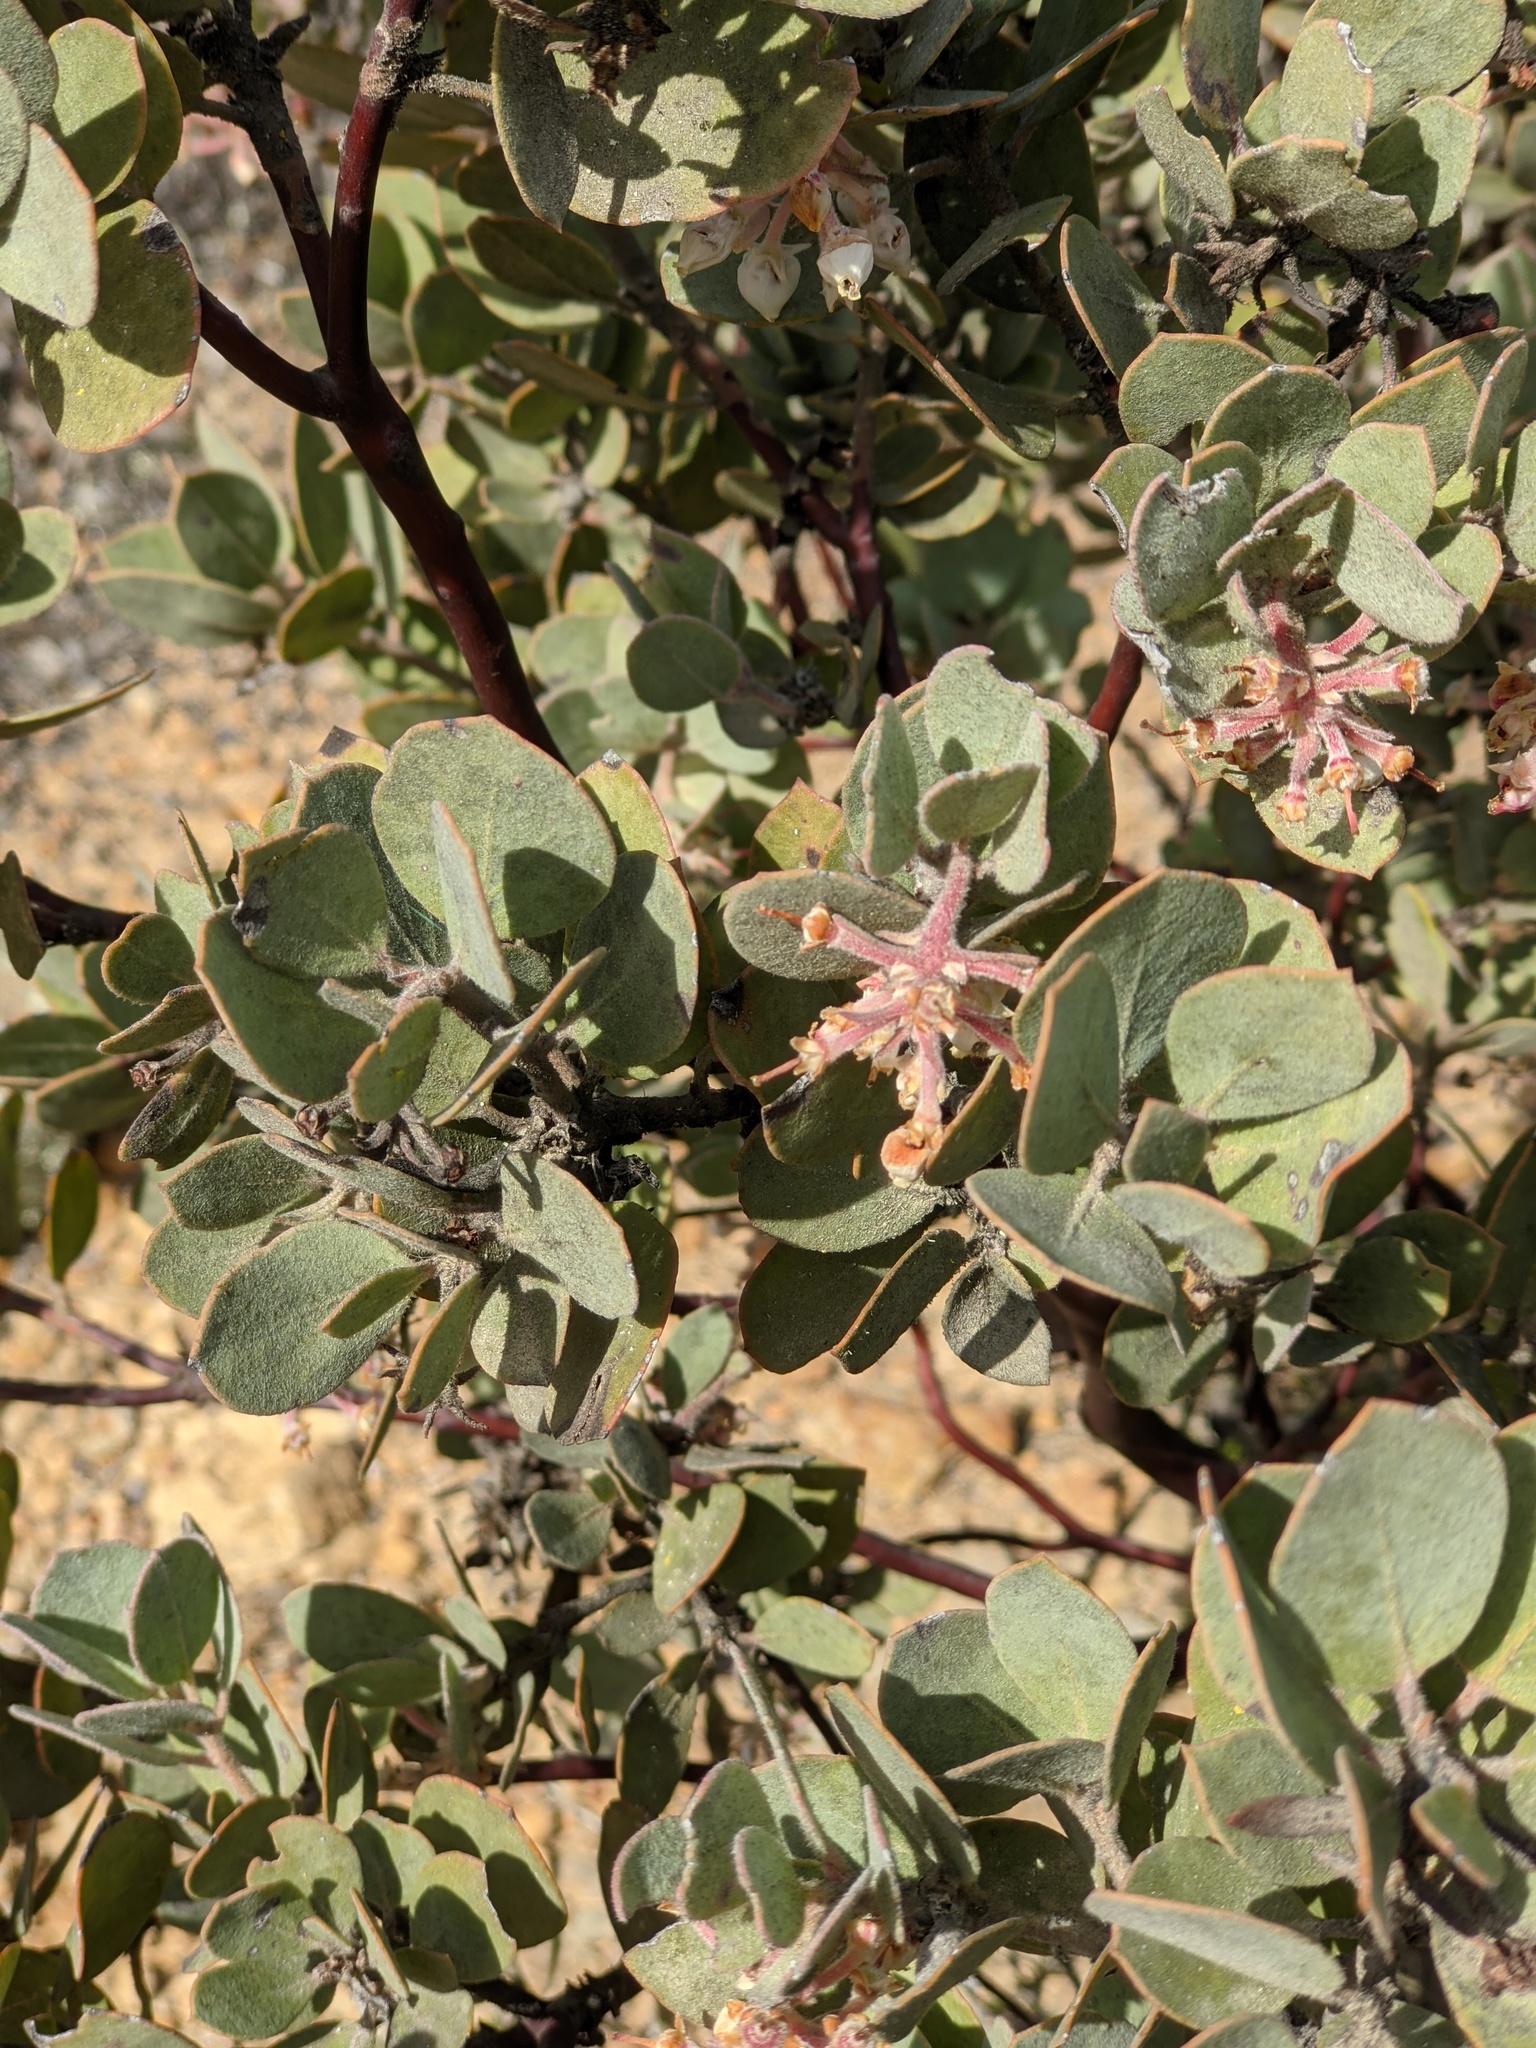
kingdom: Plantae
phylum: Tracheophyta
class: Magnoliopsida
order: Ericales
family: Ericaceae
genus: Arctostaphylos
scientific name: Arctostaphylos canescens
